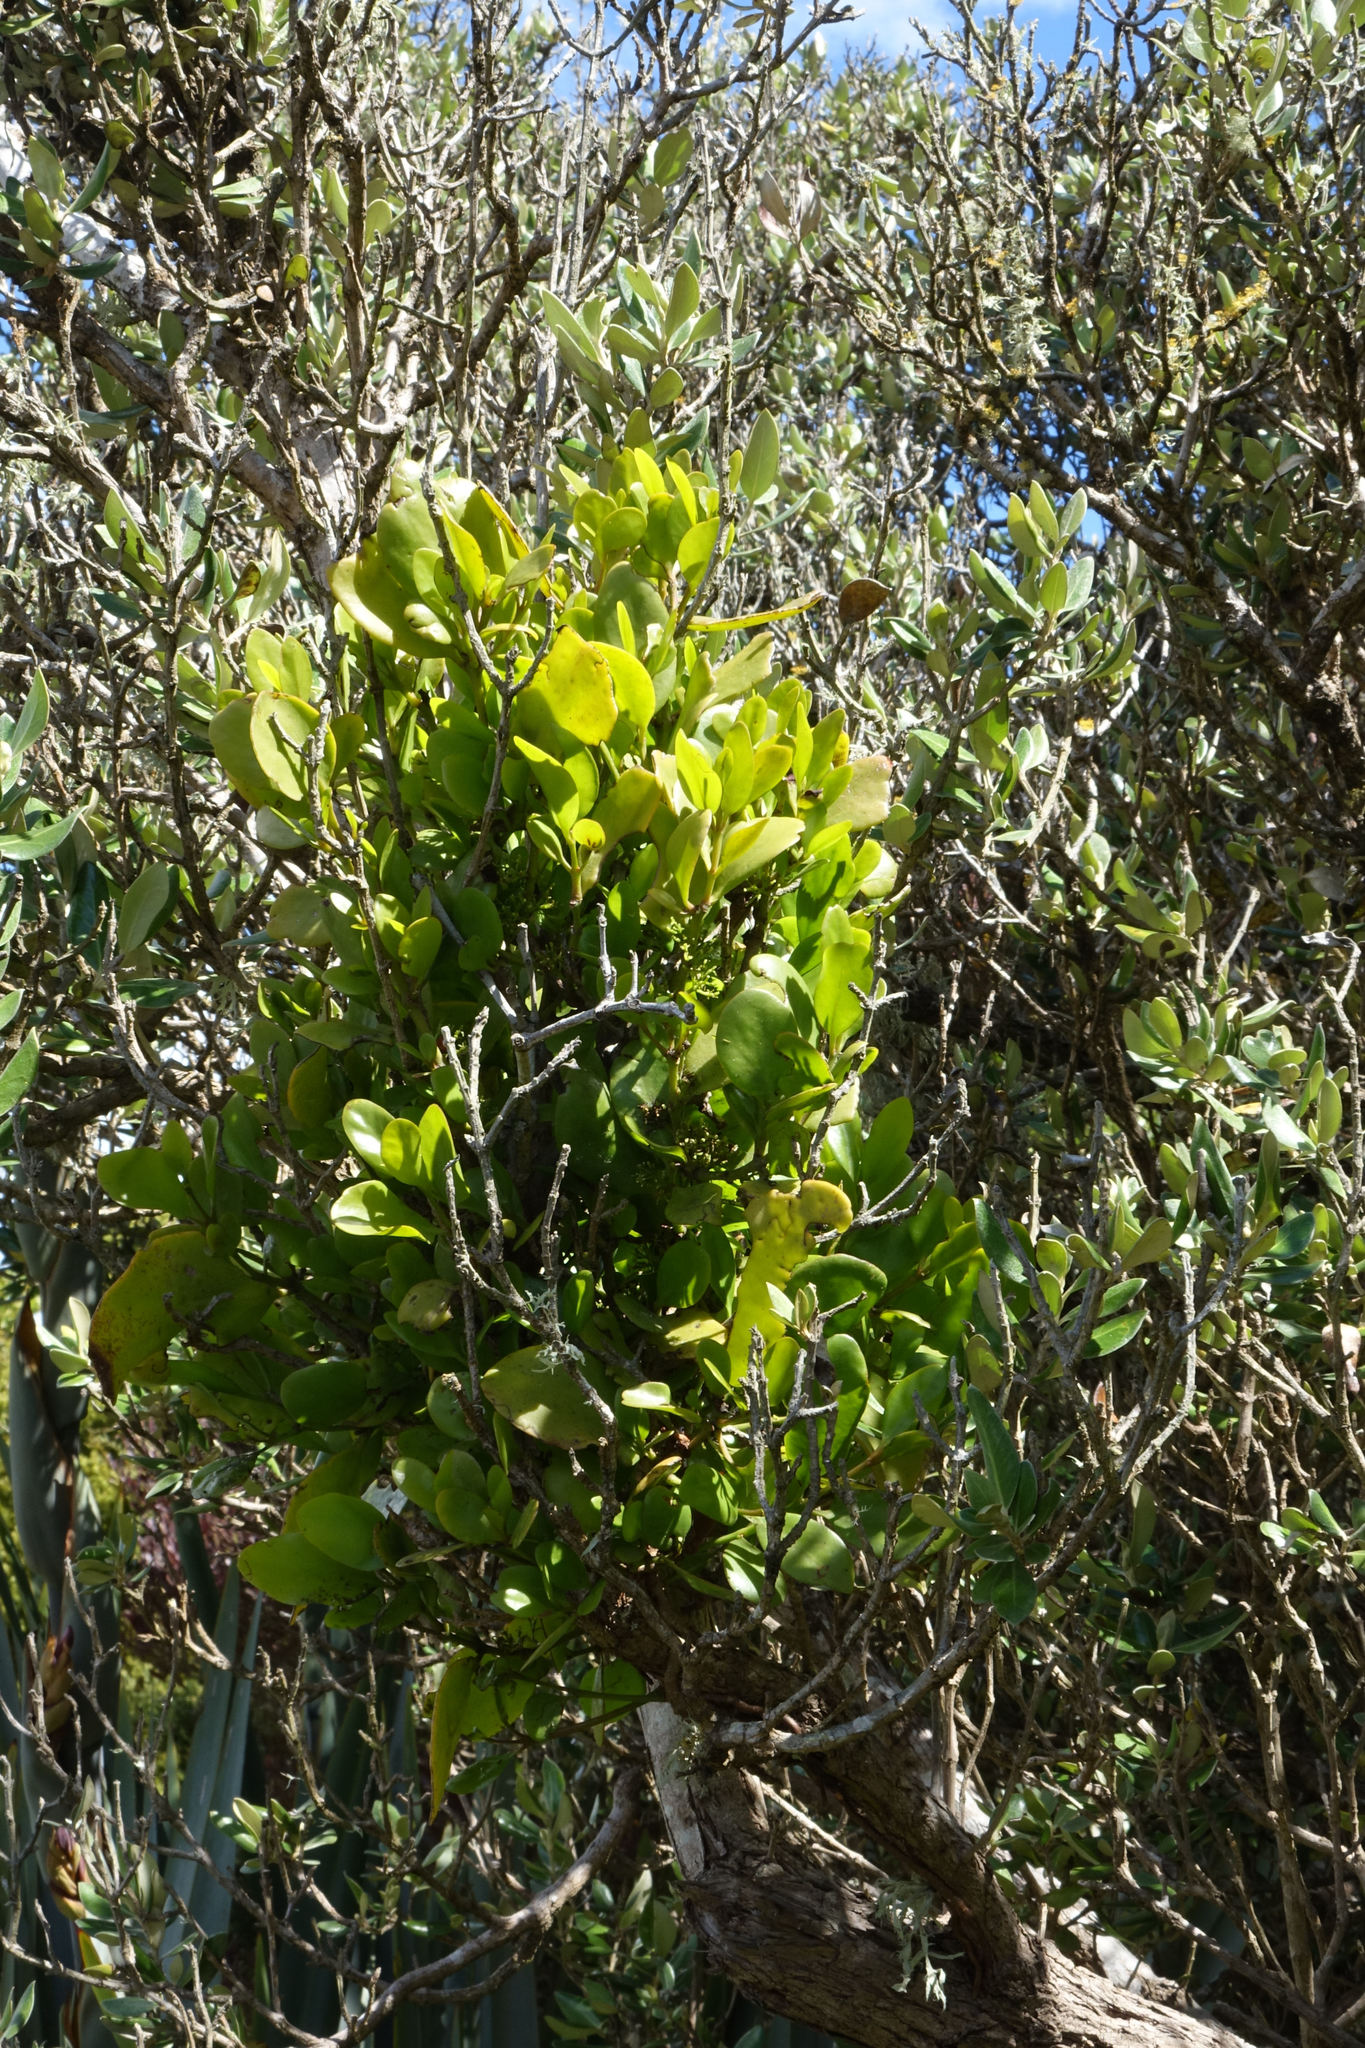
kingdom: Plantae
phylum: Tracheophyta
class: Magnoliopsida
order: Santalales
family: Loranthaceae
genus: Ileostylus
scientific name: Ileostylus micranthus
